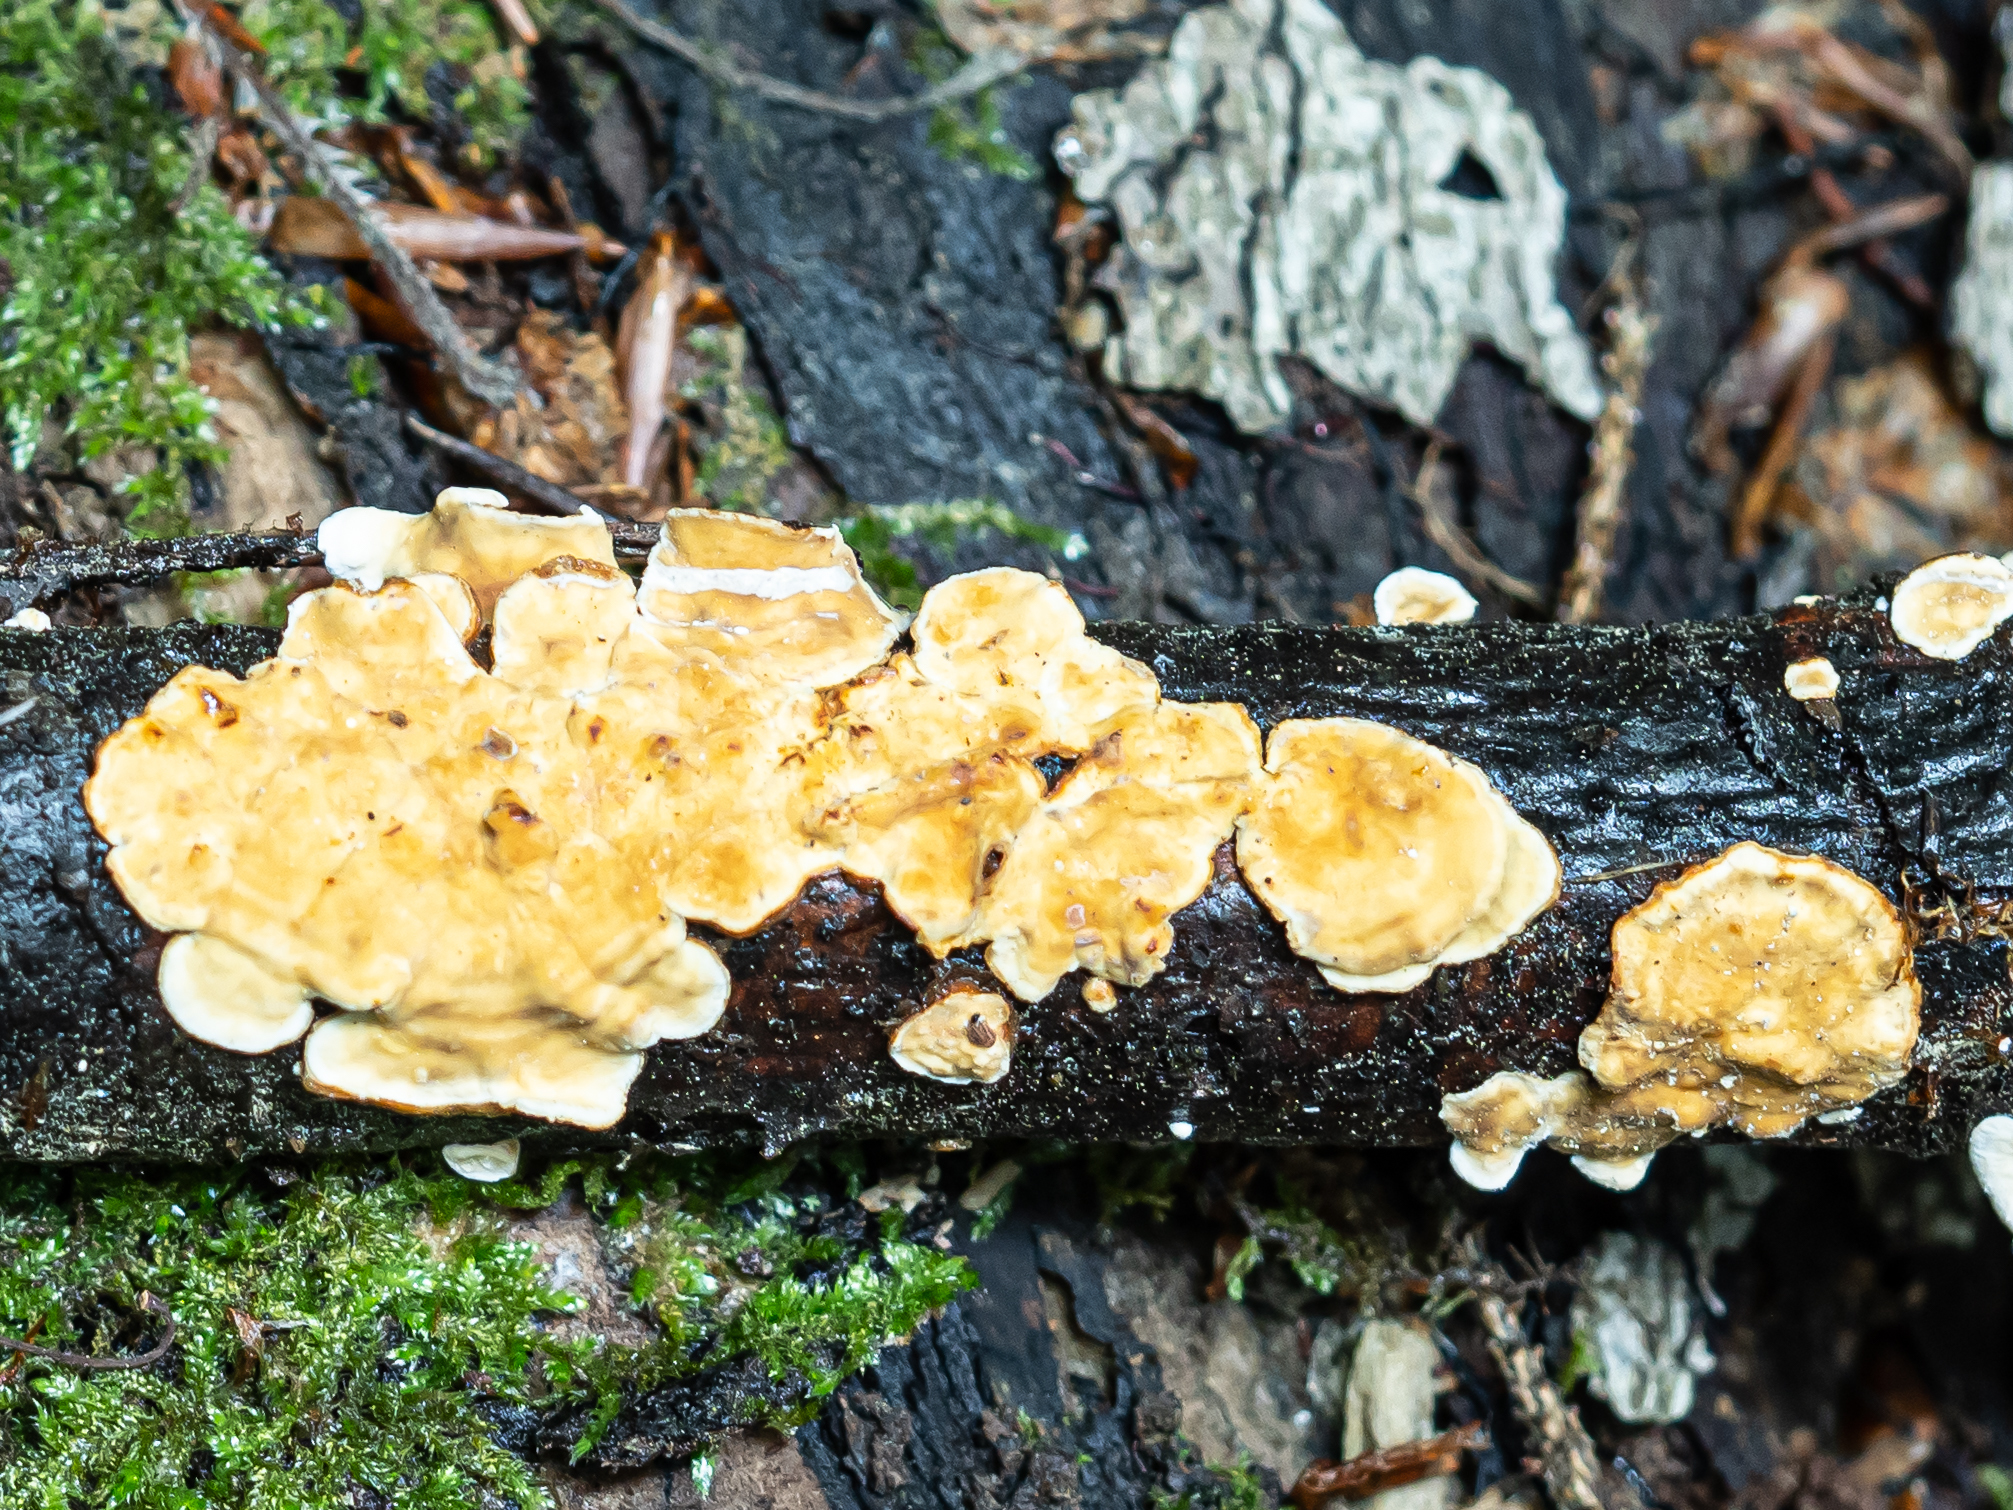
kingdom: Fungi
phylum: Basidiomycota
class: Agaricomycetes
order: Russulales
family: Stereaceae
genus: Stereum
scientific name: Stereum hirsutum
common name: Hairy curtain crust
